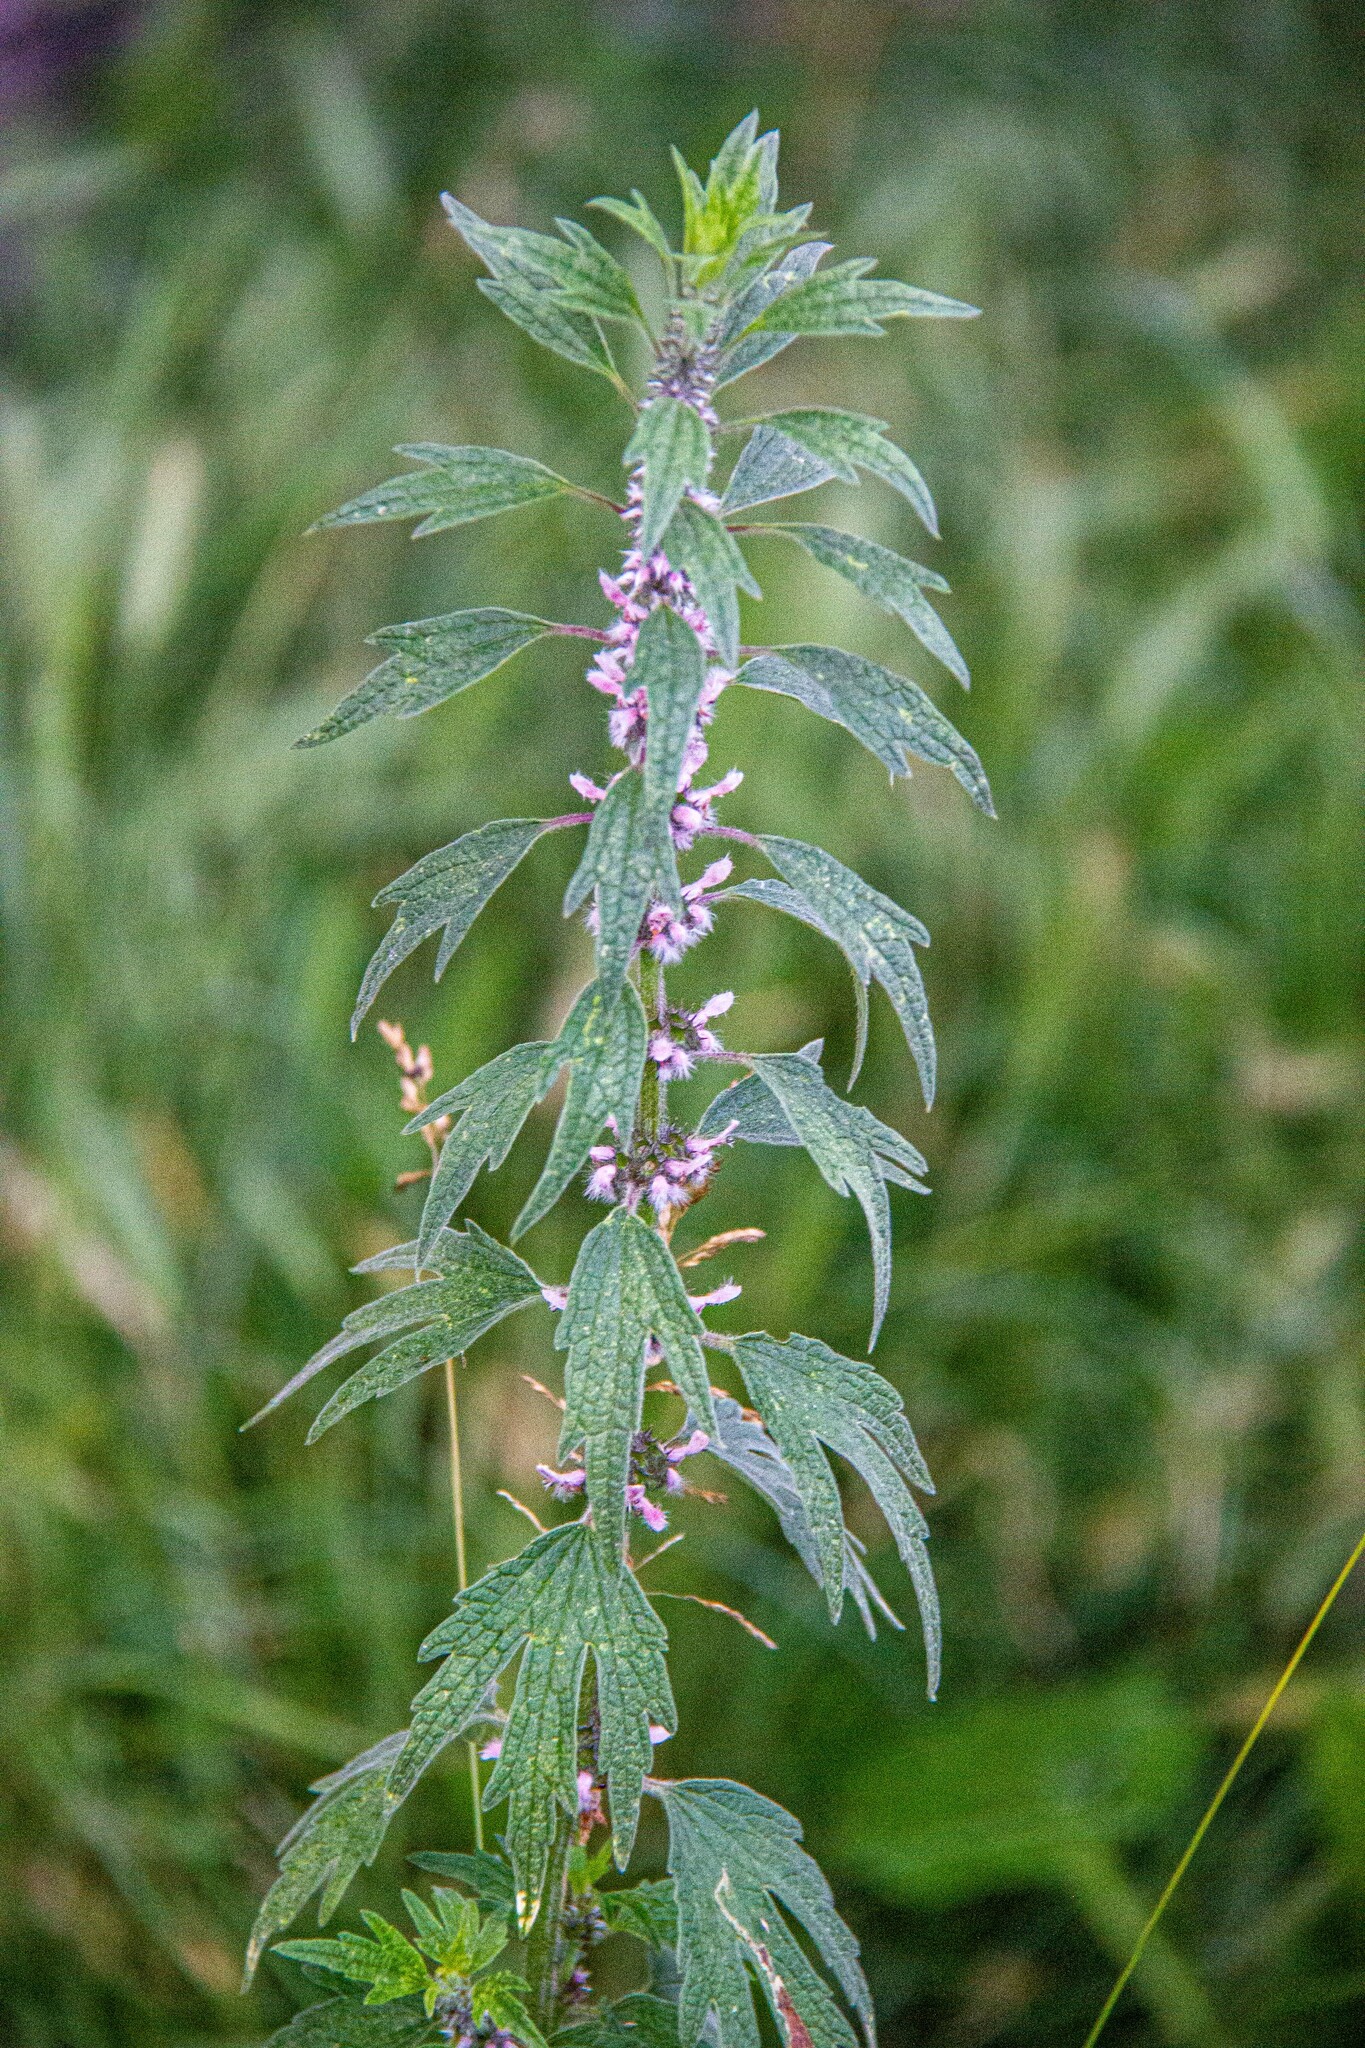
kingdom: Plantae
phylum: Tracheophyta
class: Magnoliopsida
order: Lamiales
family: Lamiaceae
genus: Leonurus
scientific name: Leonurus quinquelobatus
